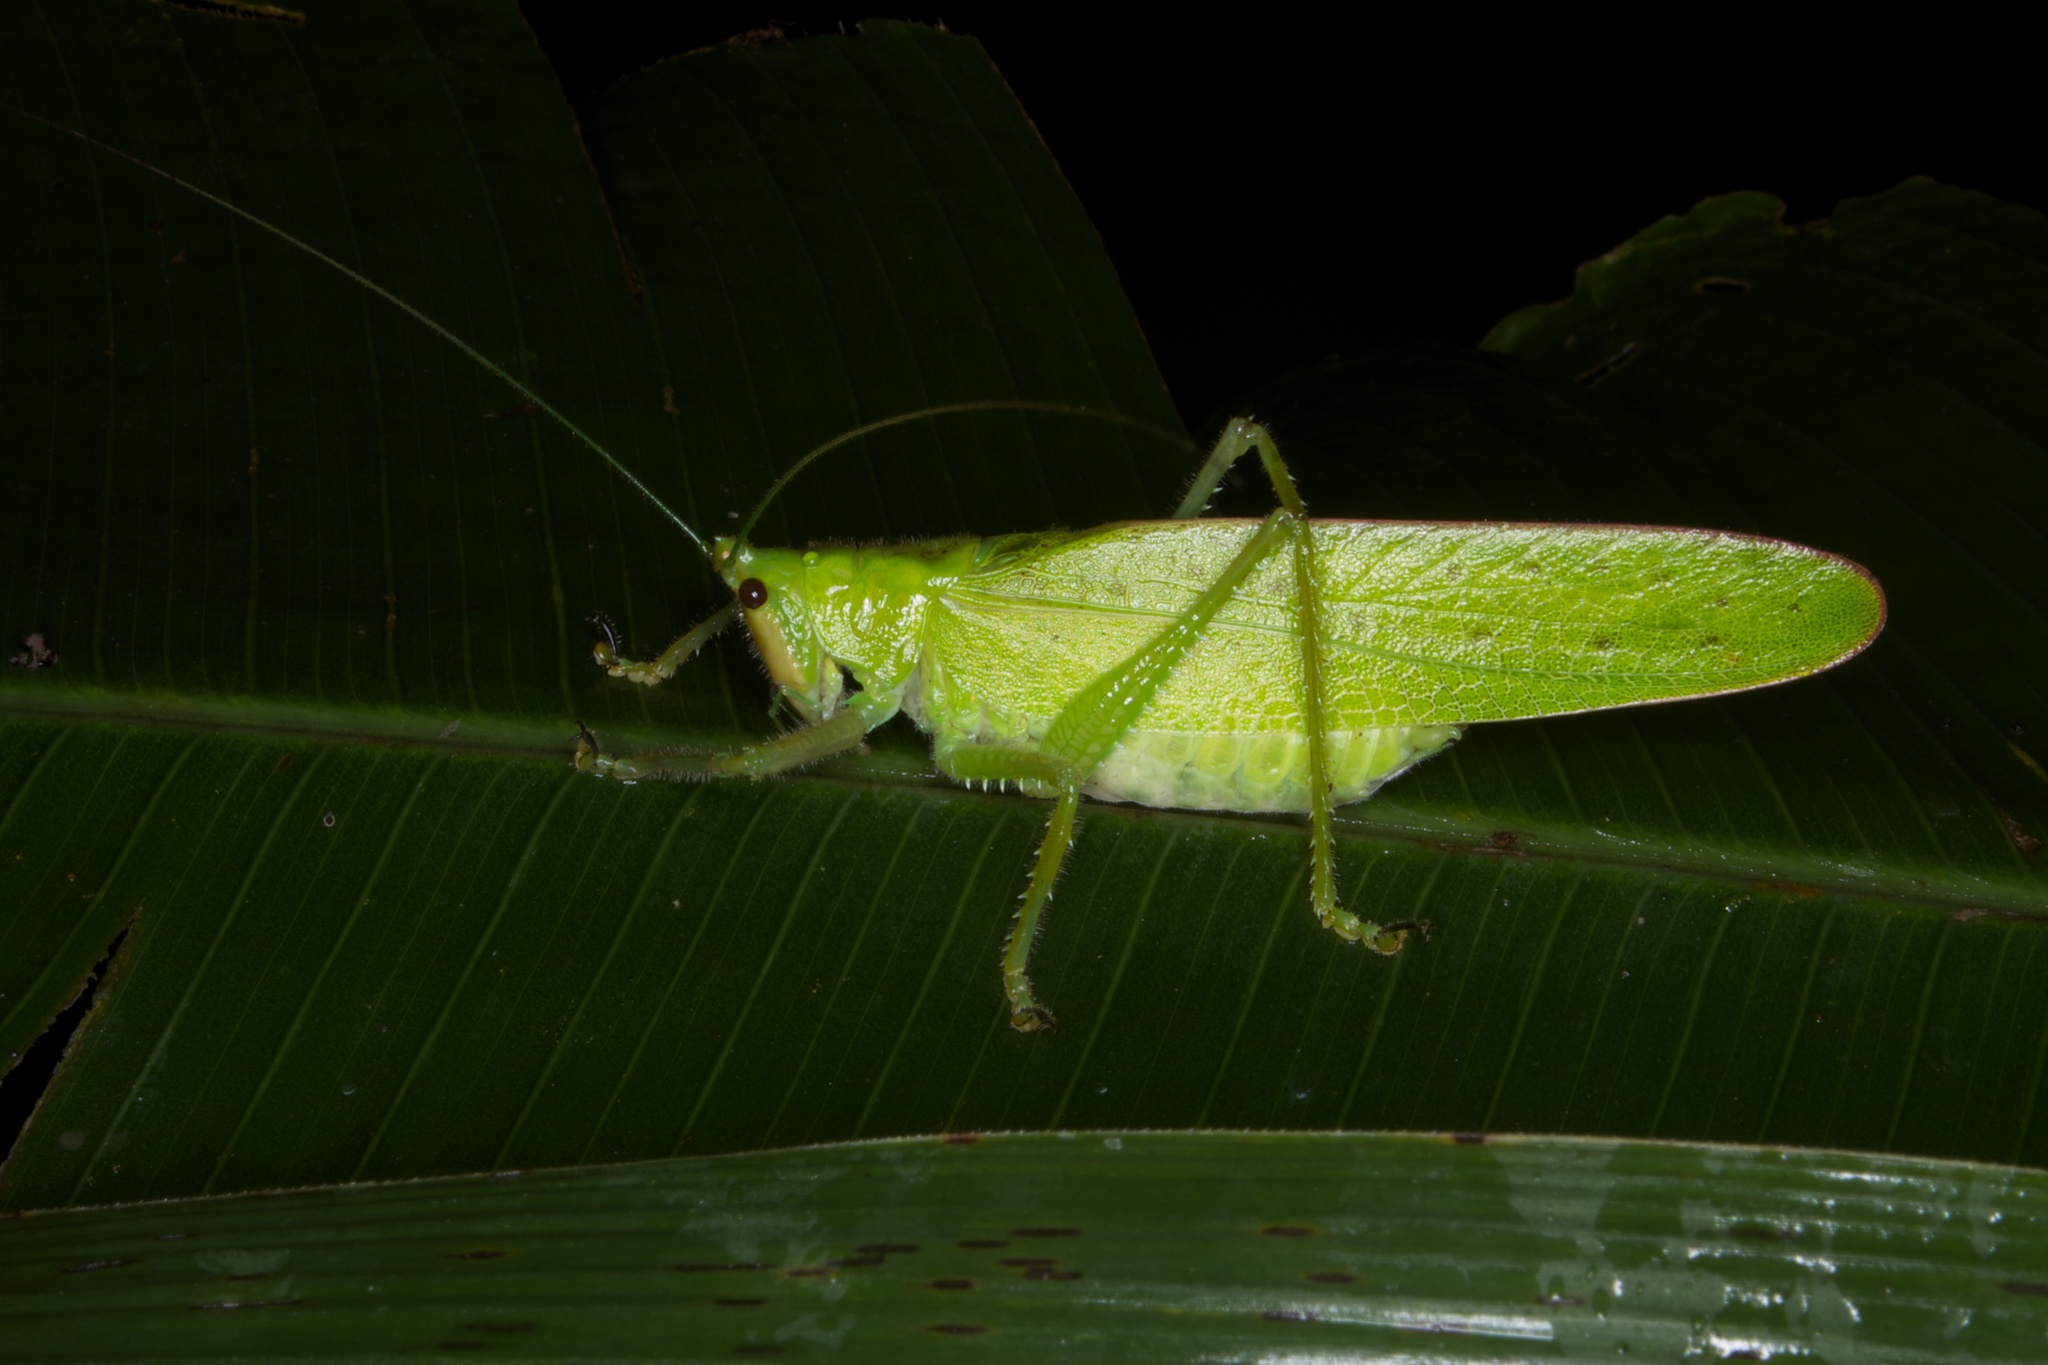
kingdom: Animalia
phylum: Arthropoda
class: Insecta
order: Orthoptera
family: Tettigoniidae
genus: Copiphora
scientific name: Copiphora brevirostris
